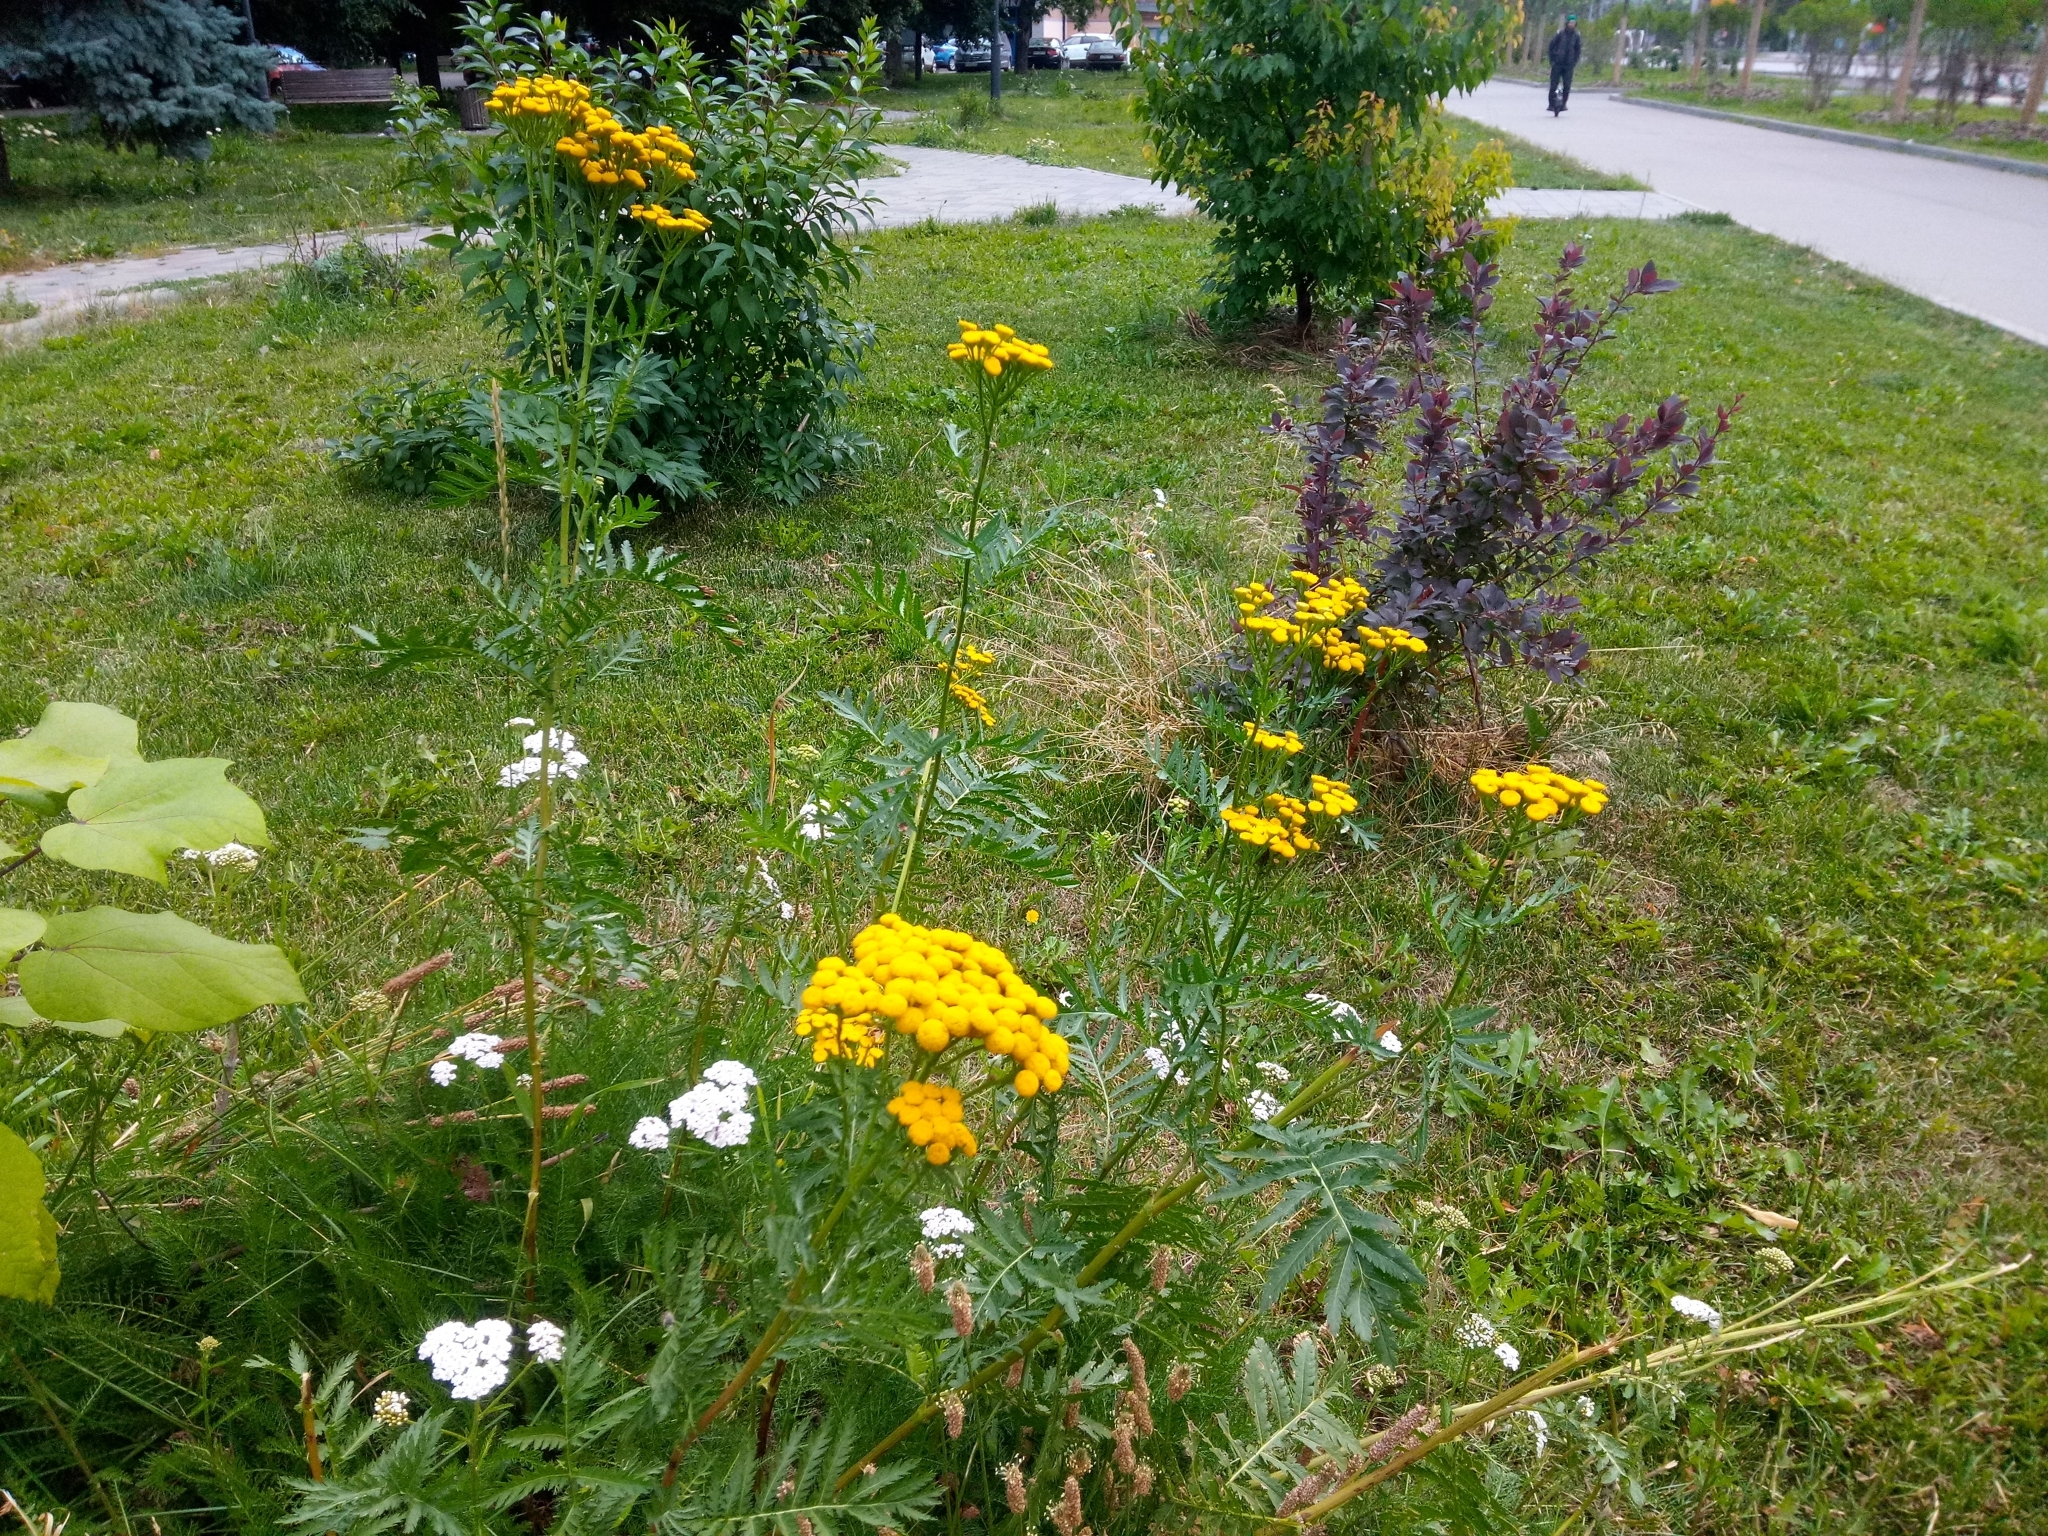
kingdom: Plantae
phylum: Tracheophyta
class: Magnoliopsida
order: Asterales
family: Asteraceae
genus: Tanacetum
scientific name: Tanacetum vulgare
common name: Common tansy
